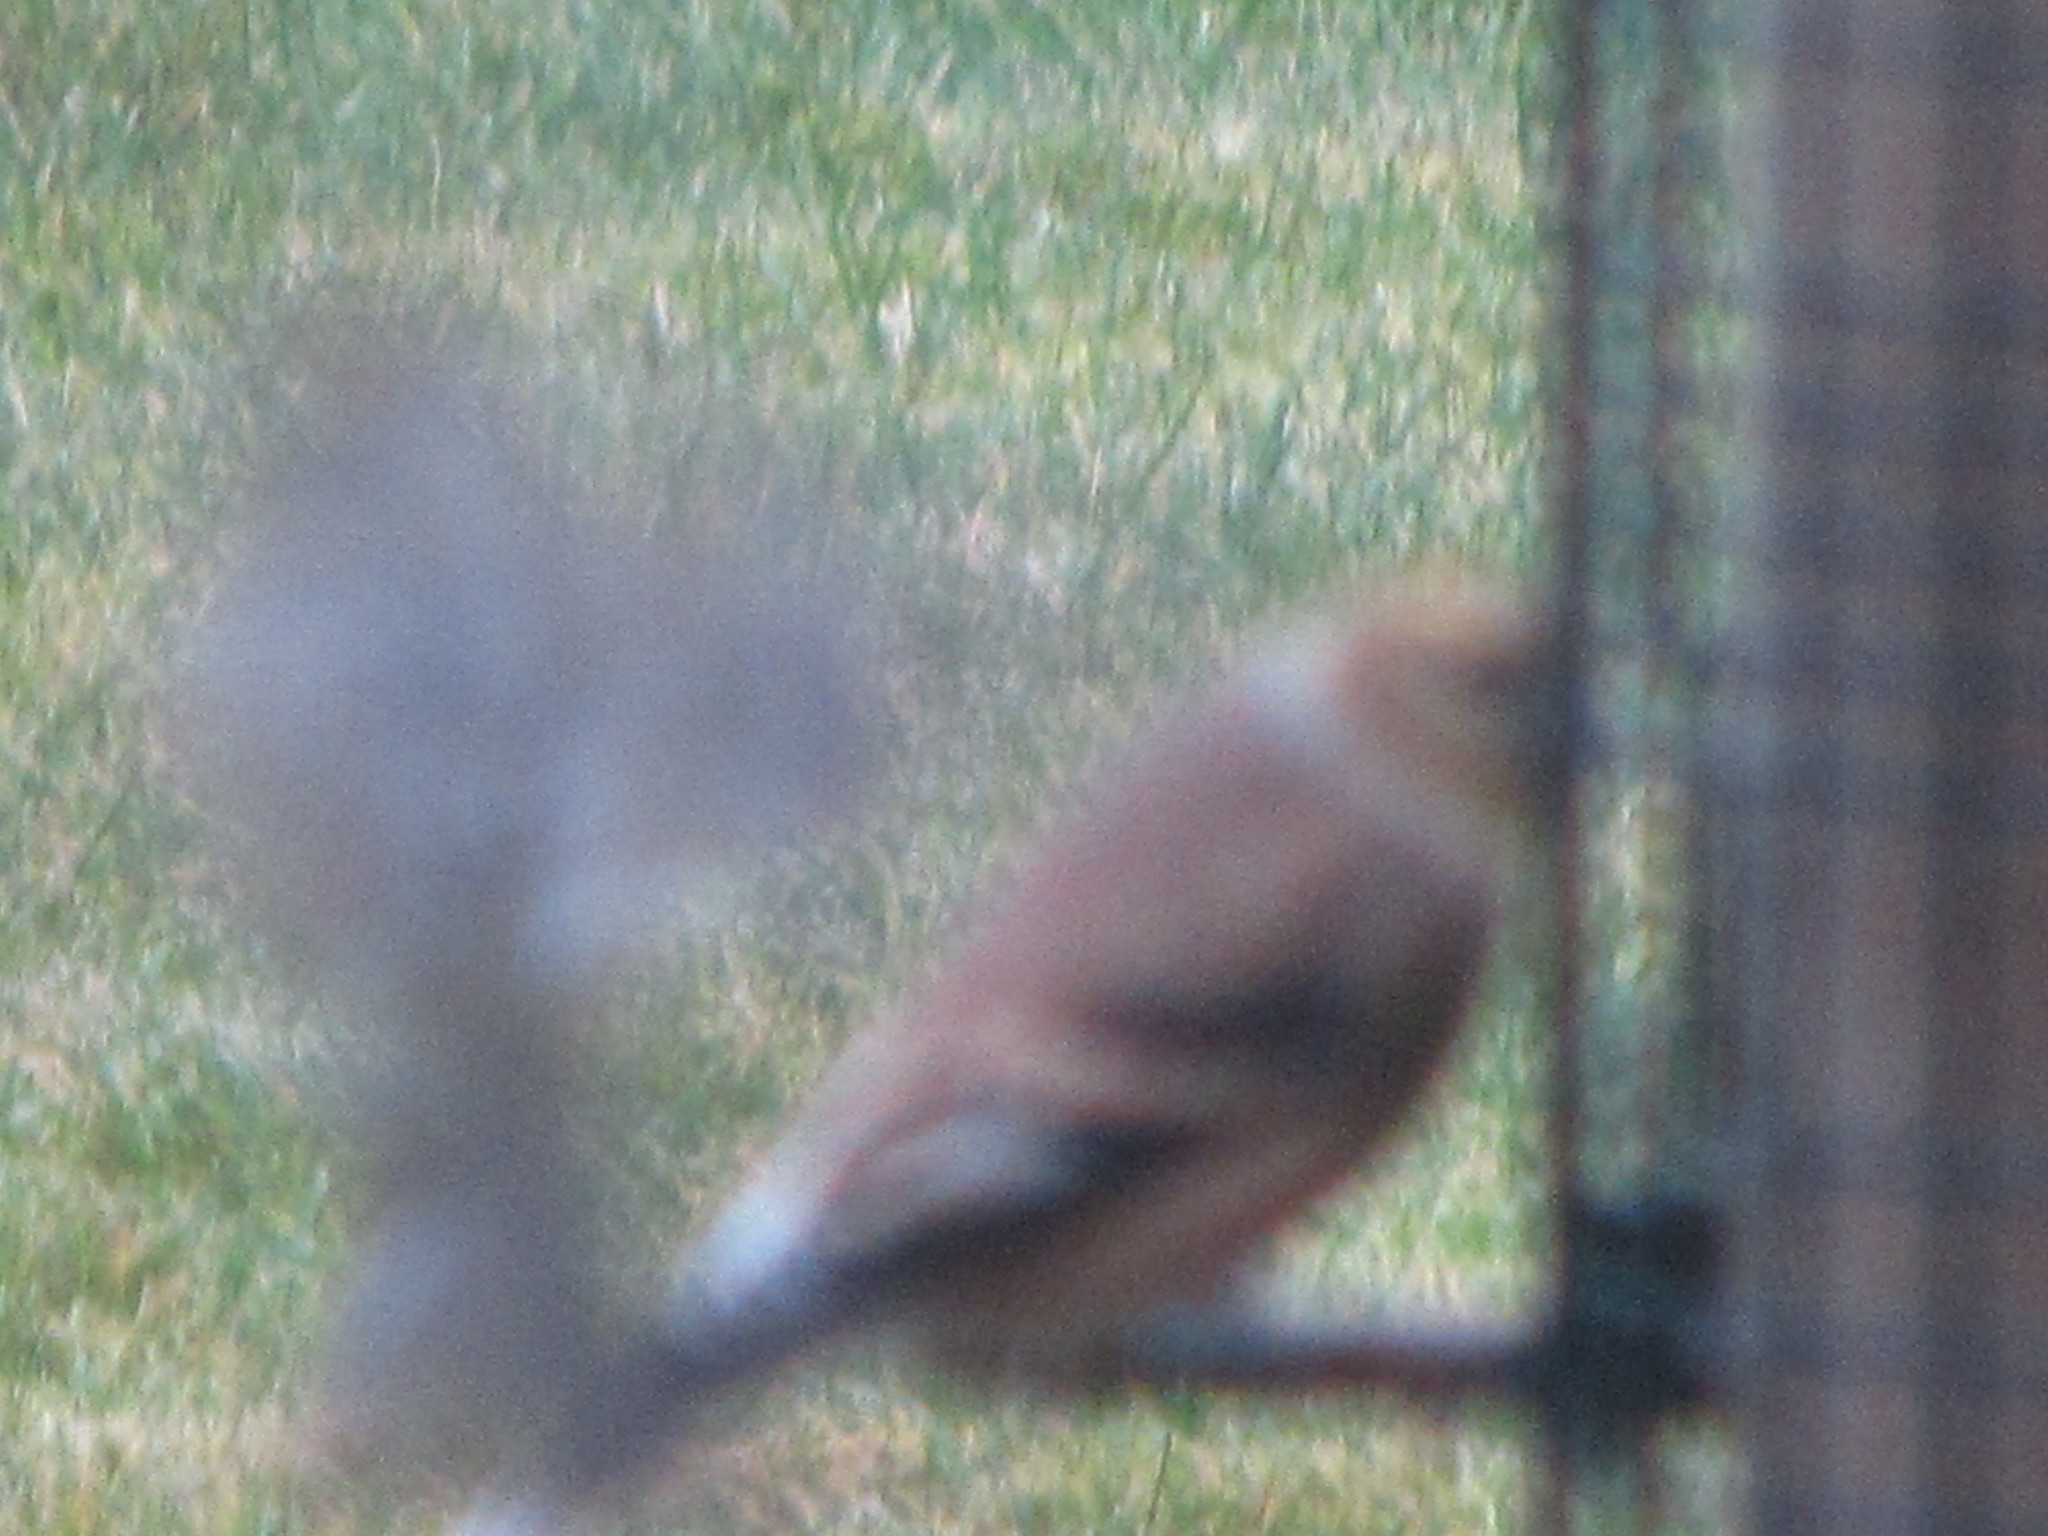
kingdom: Animalia
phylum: Chordata
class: Aves
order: Passeriformes
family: Fringillidae
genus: Spinus
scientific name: Spinus tristis
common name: American goldfinch
